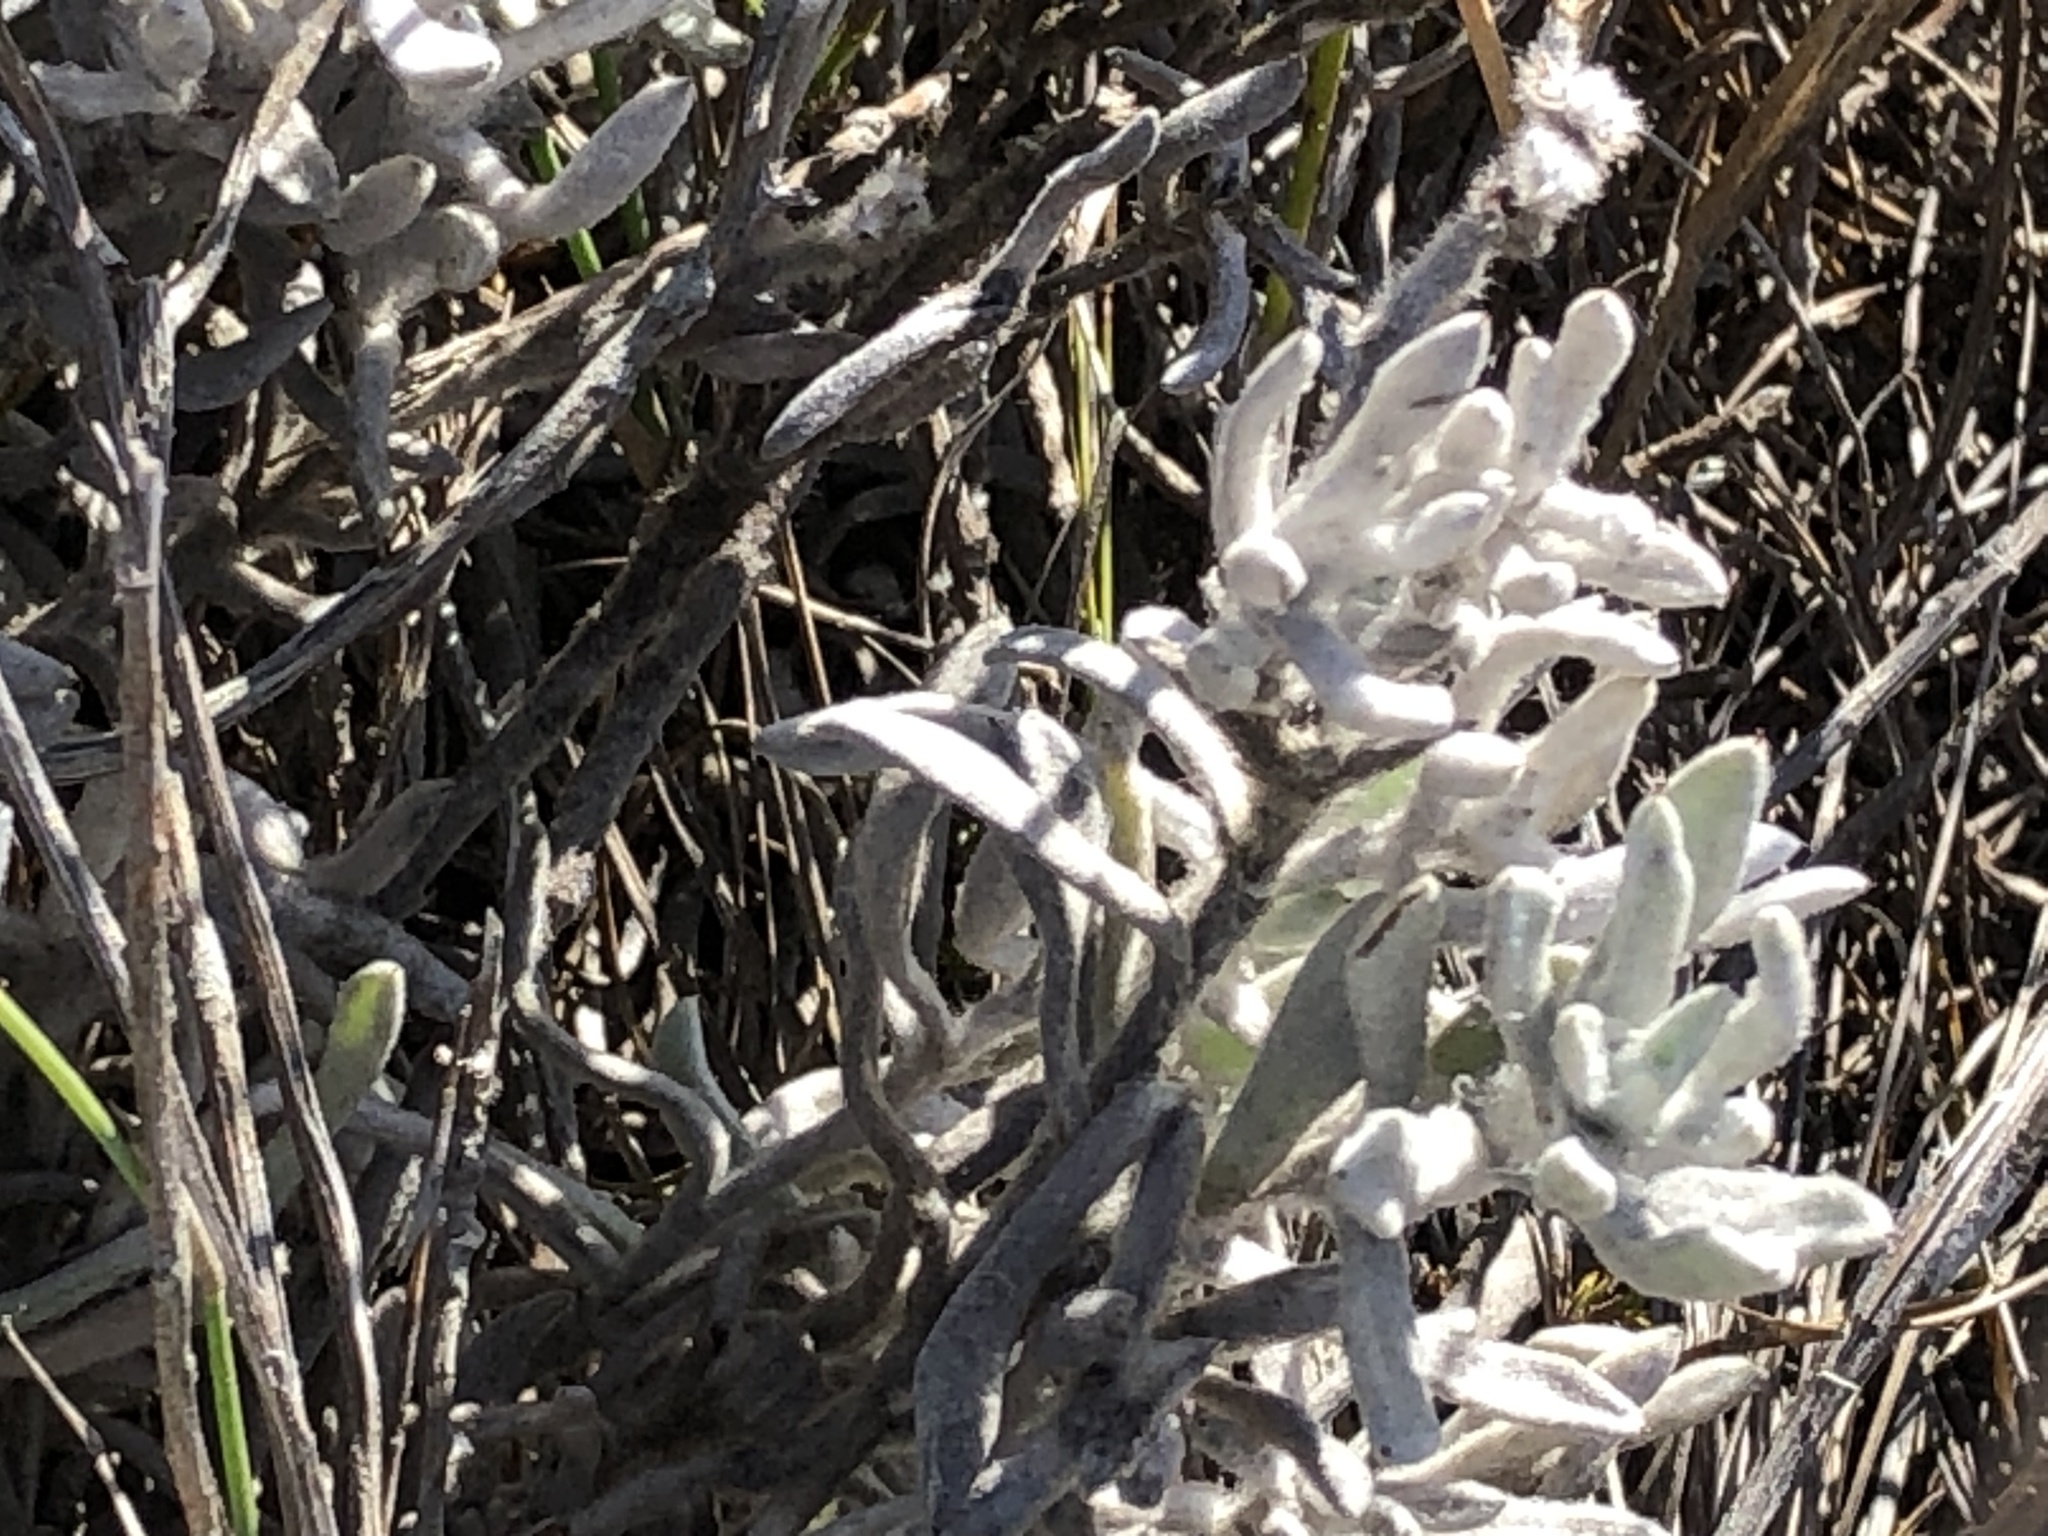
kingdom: Plantae
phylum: Tracheophyta
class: Magnoliopsida
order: Asterales
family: Asteraceae
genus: Petalacte
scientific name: Petalacte coronata
